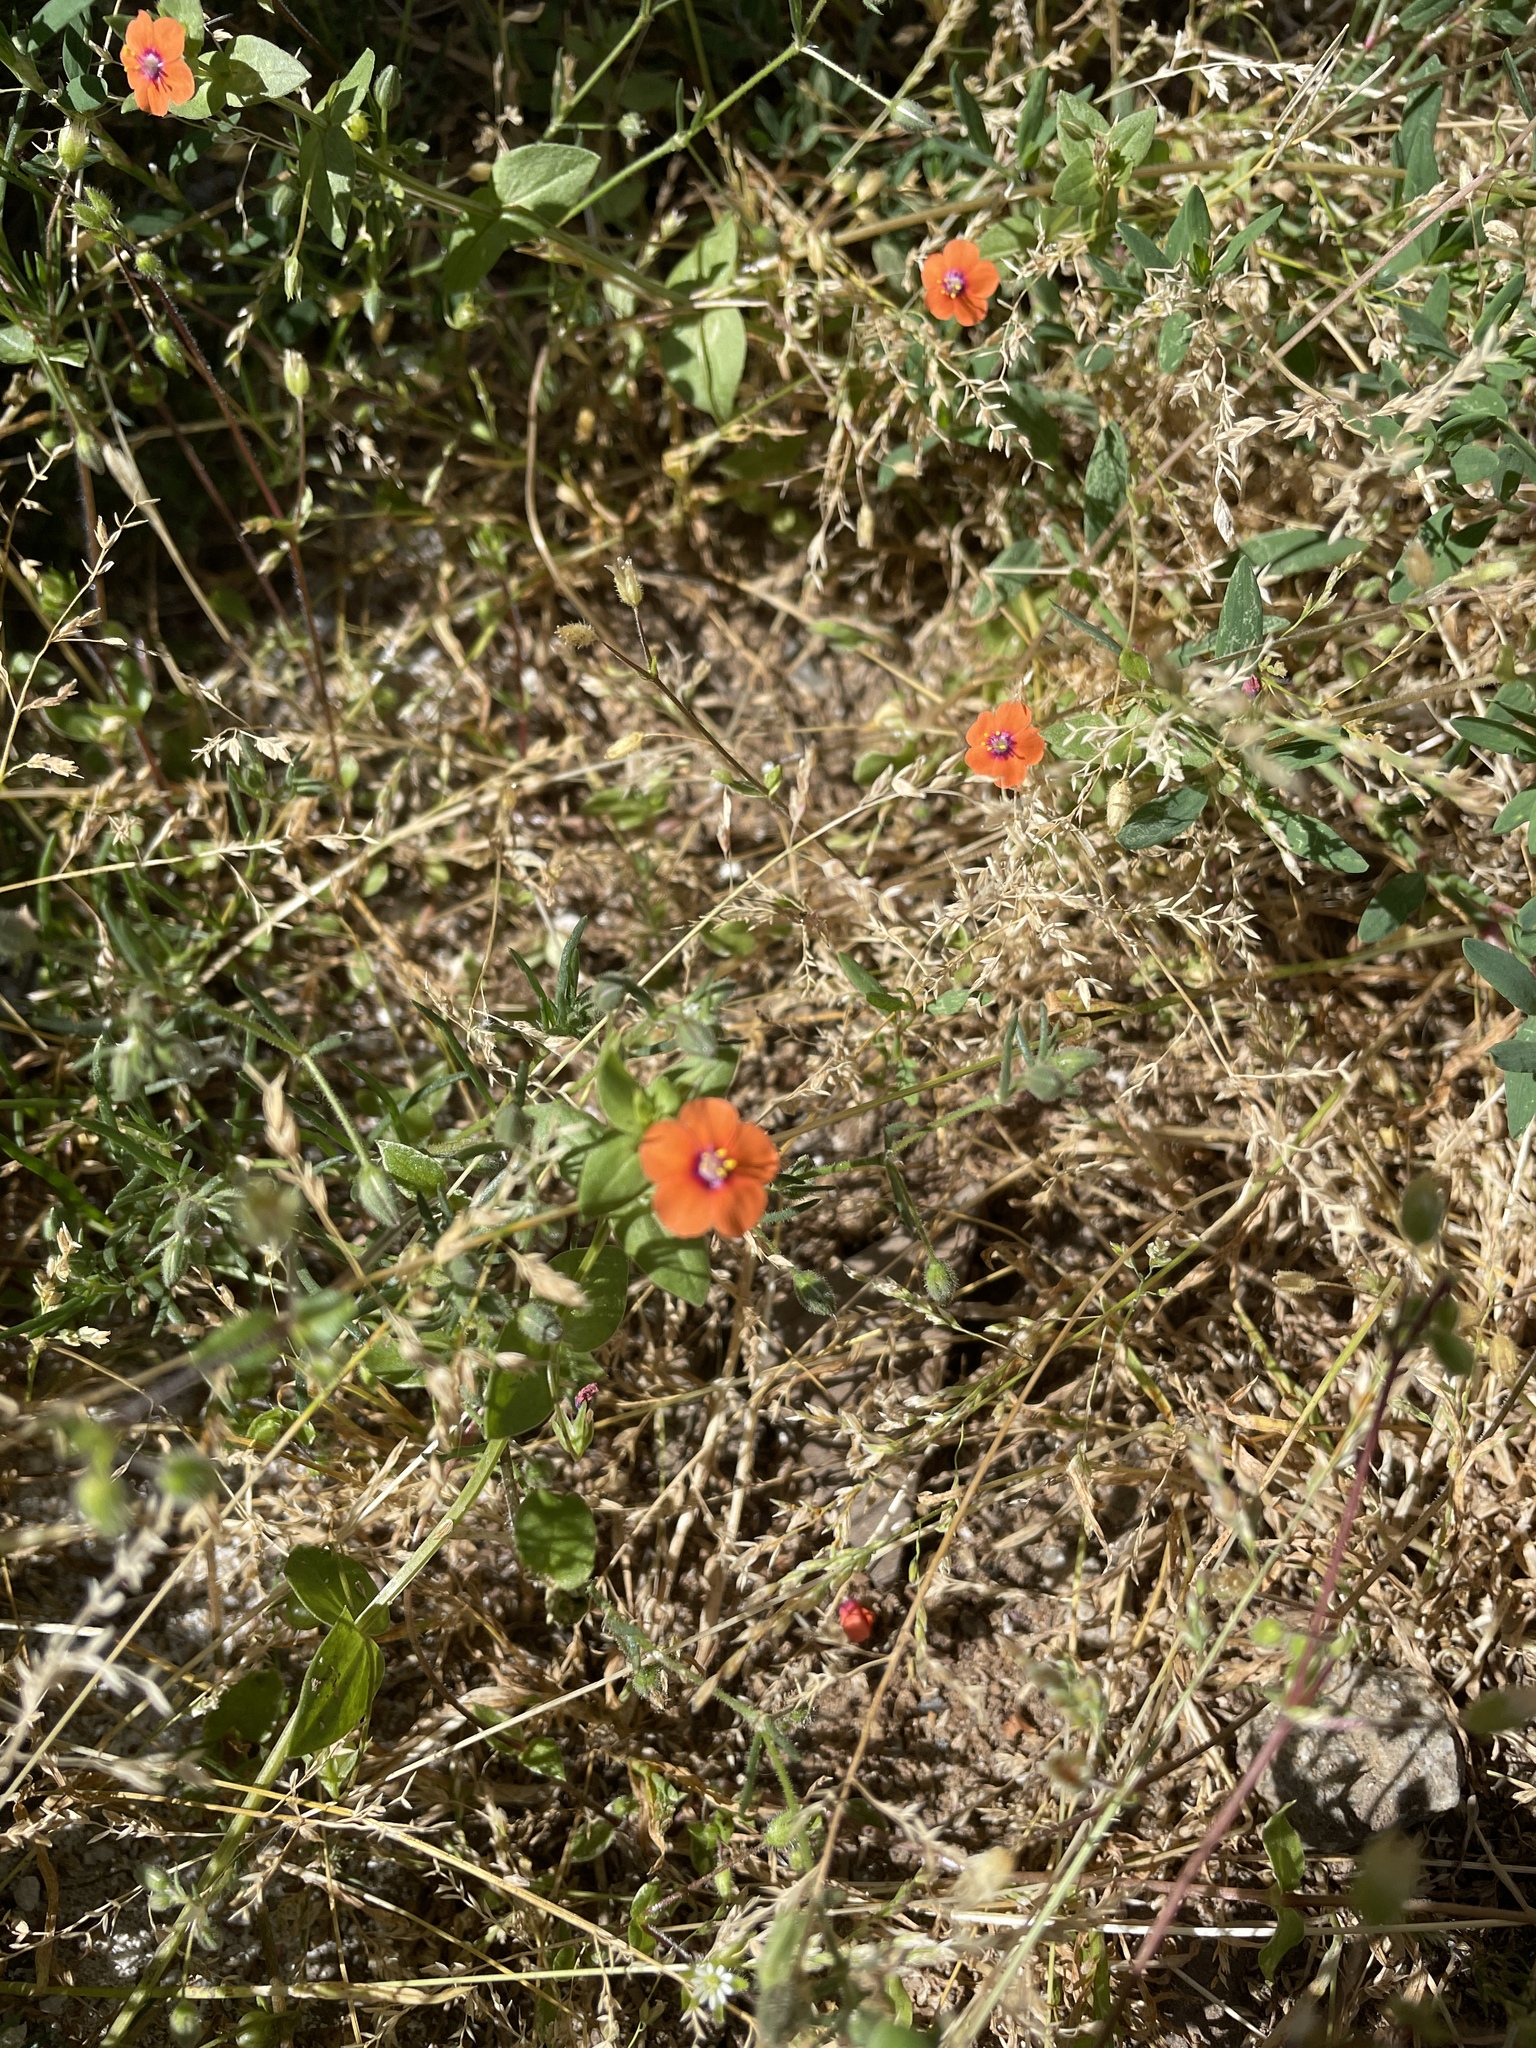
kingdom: Plantae
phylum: Tracheophyta
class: Magnoliopsida
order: Ericales
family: Primulaceae
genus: Lysimachia
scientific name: Lysimachia arvensis
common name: Scarlet pimpernel
